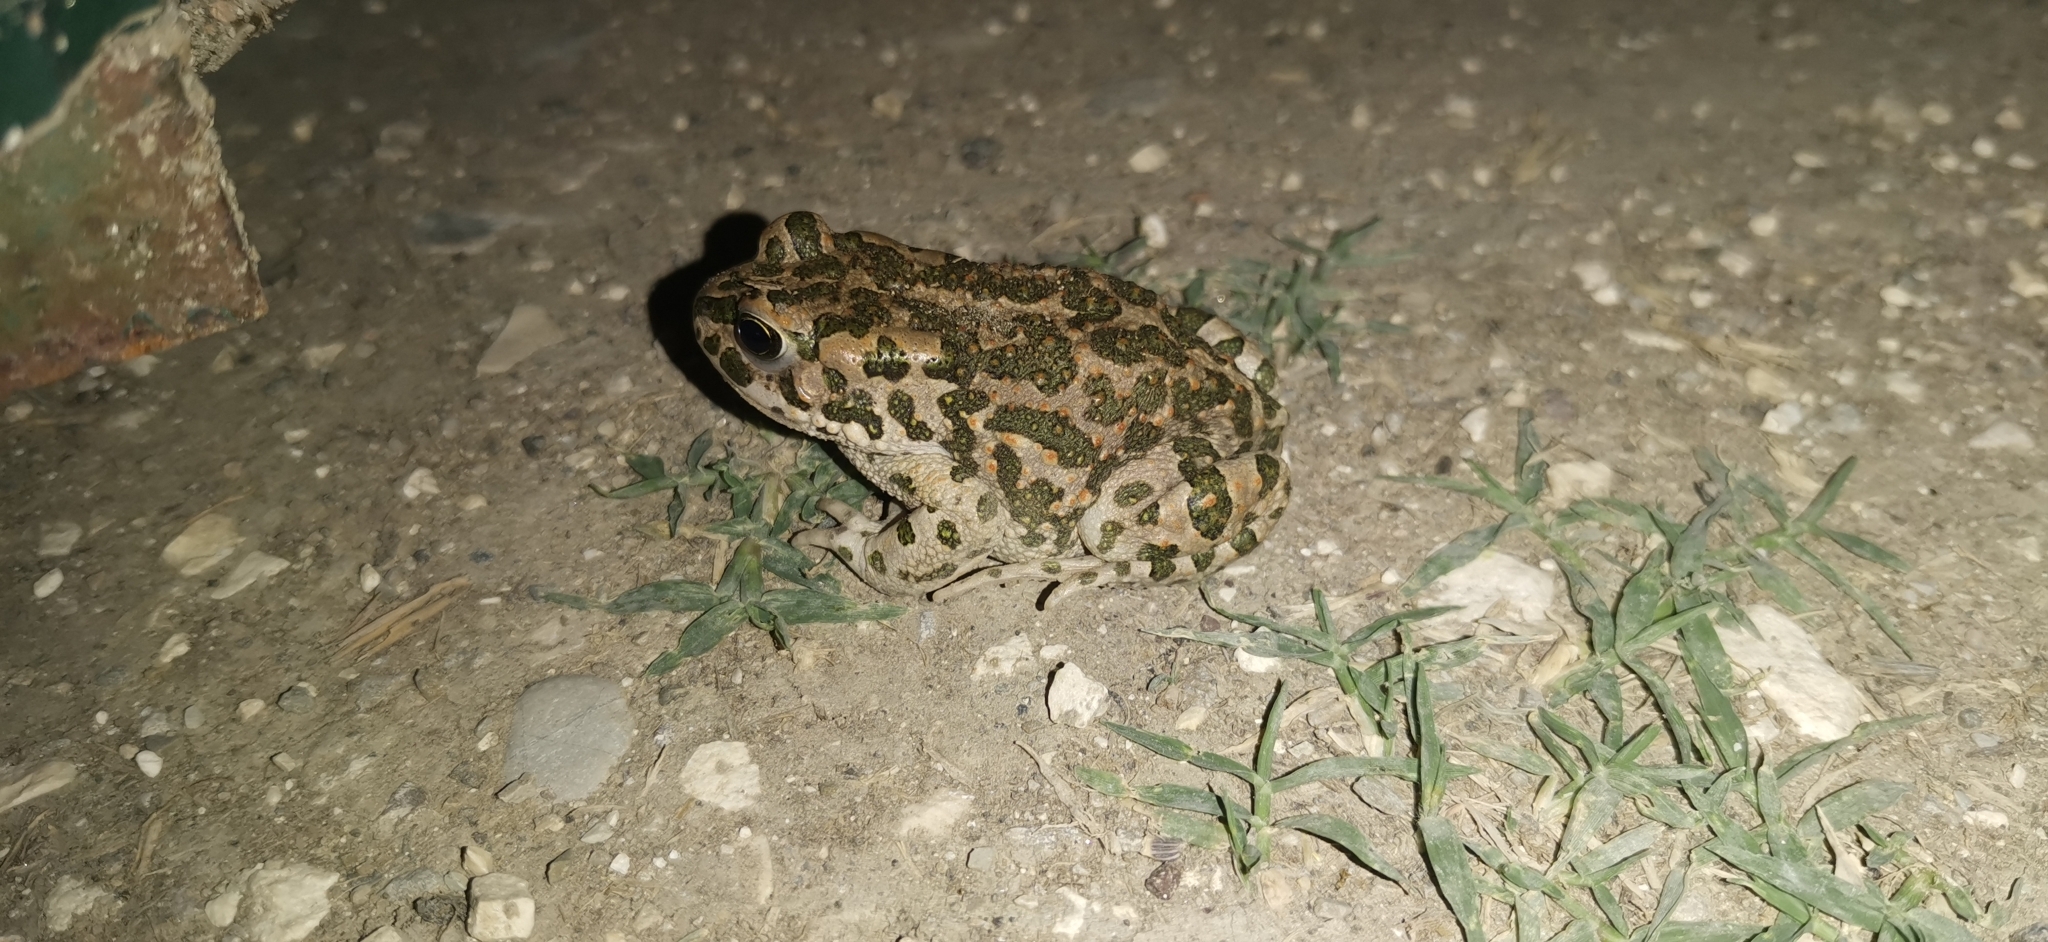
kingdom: Animalia
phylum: Chordata
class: Amphibia
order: Anura
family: Bufonidae
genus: Bufotes
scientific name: Bufotes viridis
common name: European green toad
